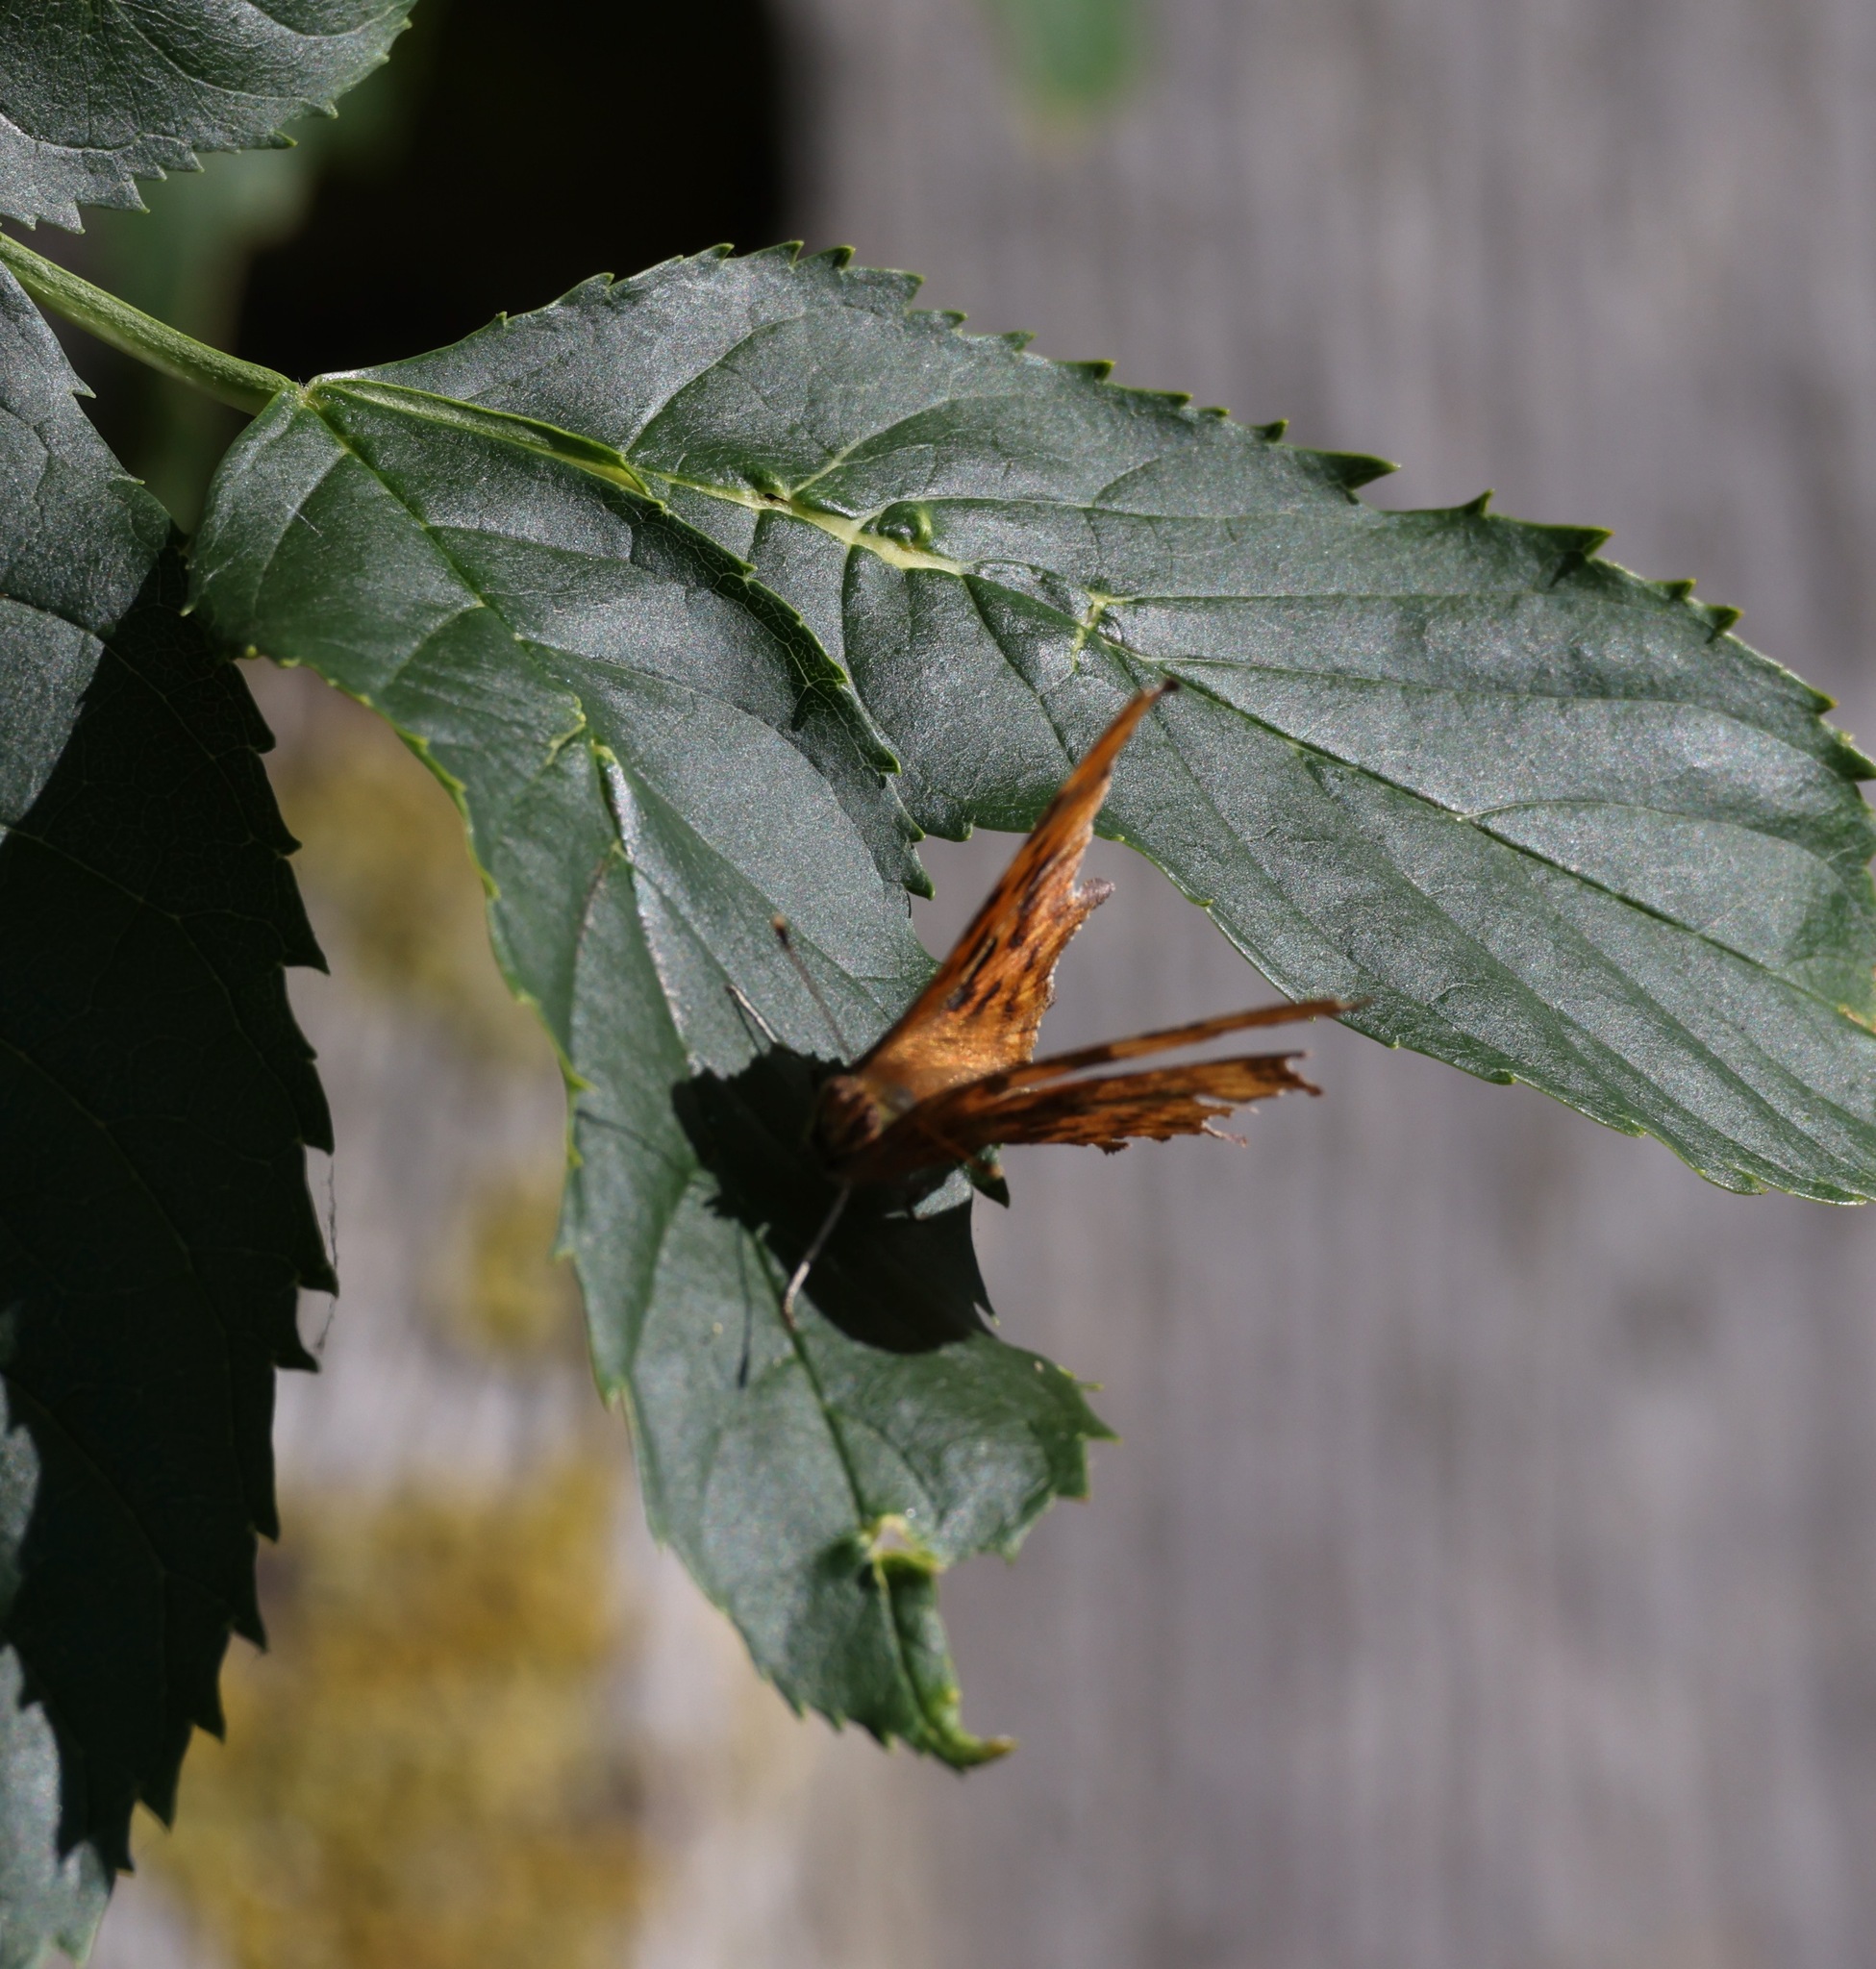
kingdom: Animalia
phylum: Arthropoda
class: Insecta
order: Lepidoptera
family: Nymphalidae
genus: Polygonia
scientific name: Polygonia c-album
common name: Comma
